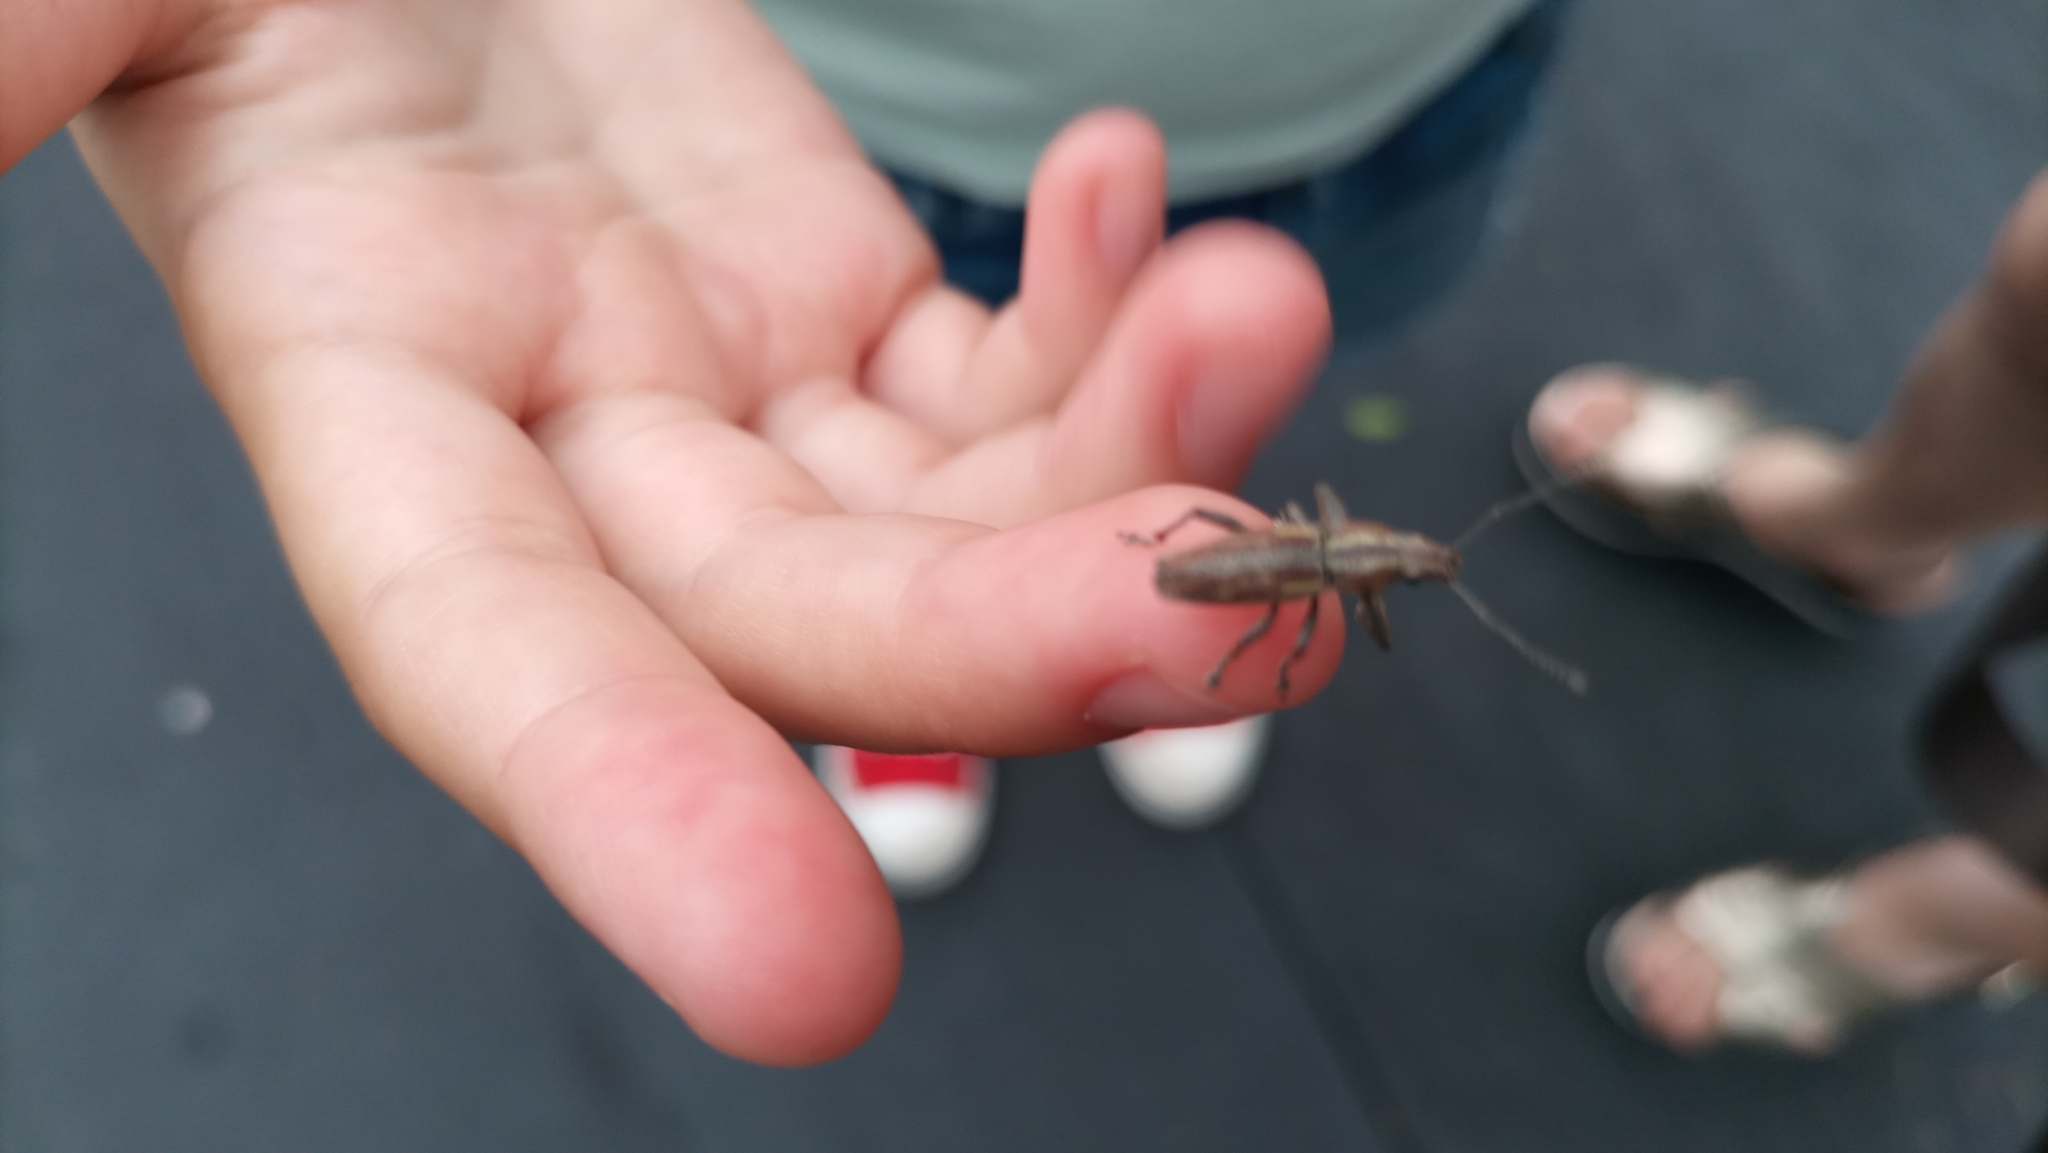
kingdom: Animalia
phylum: Arthropoda
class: Insecta
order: Coleoptera
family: Curculionidae
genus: Naupactus
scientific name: Naupactus xanthographus
